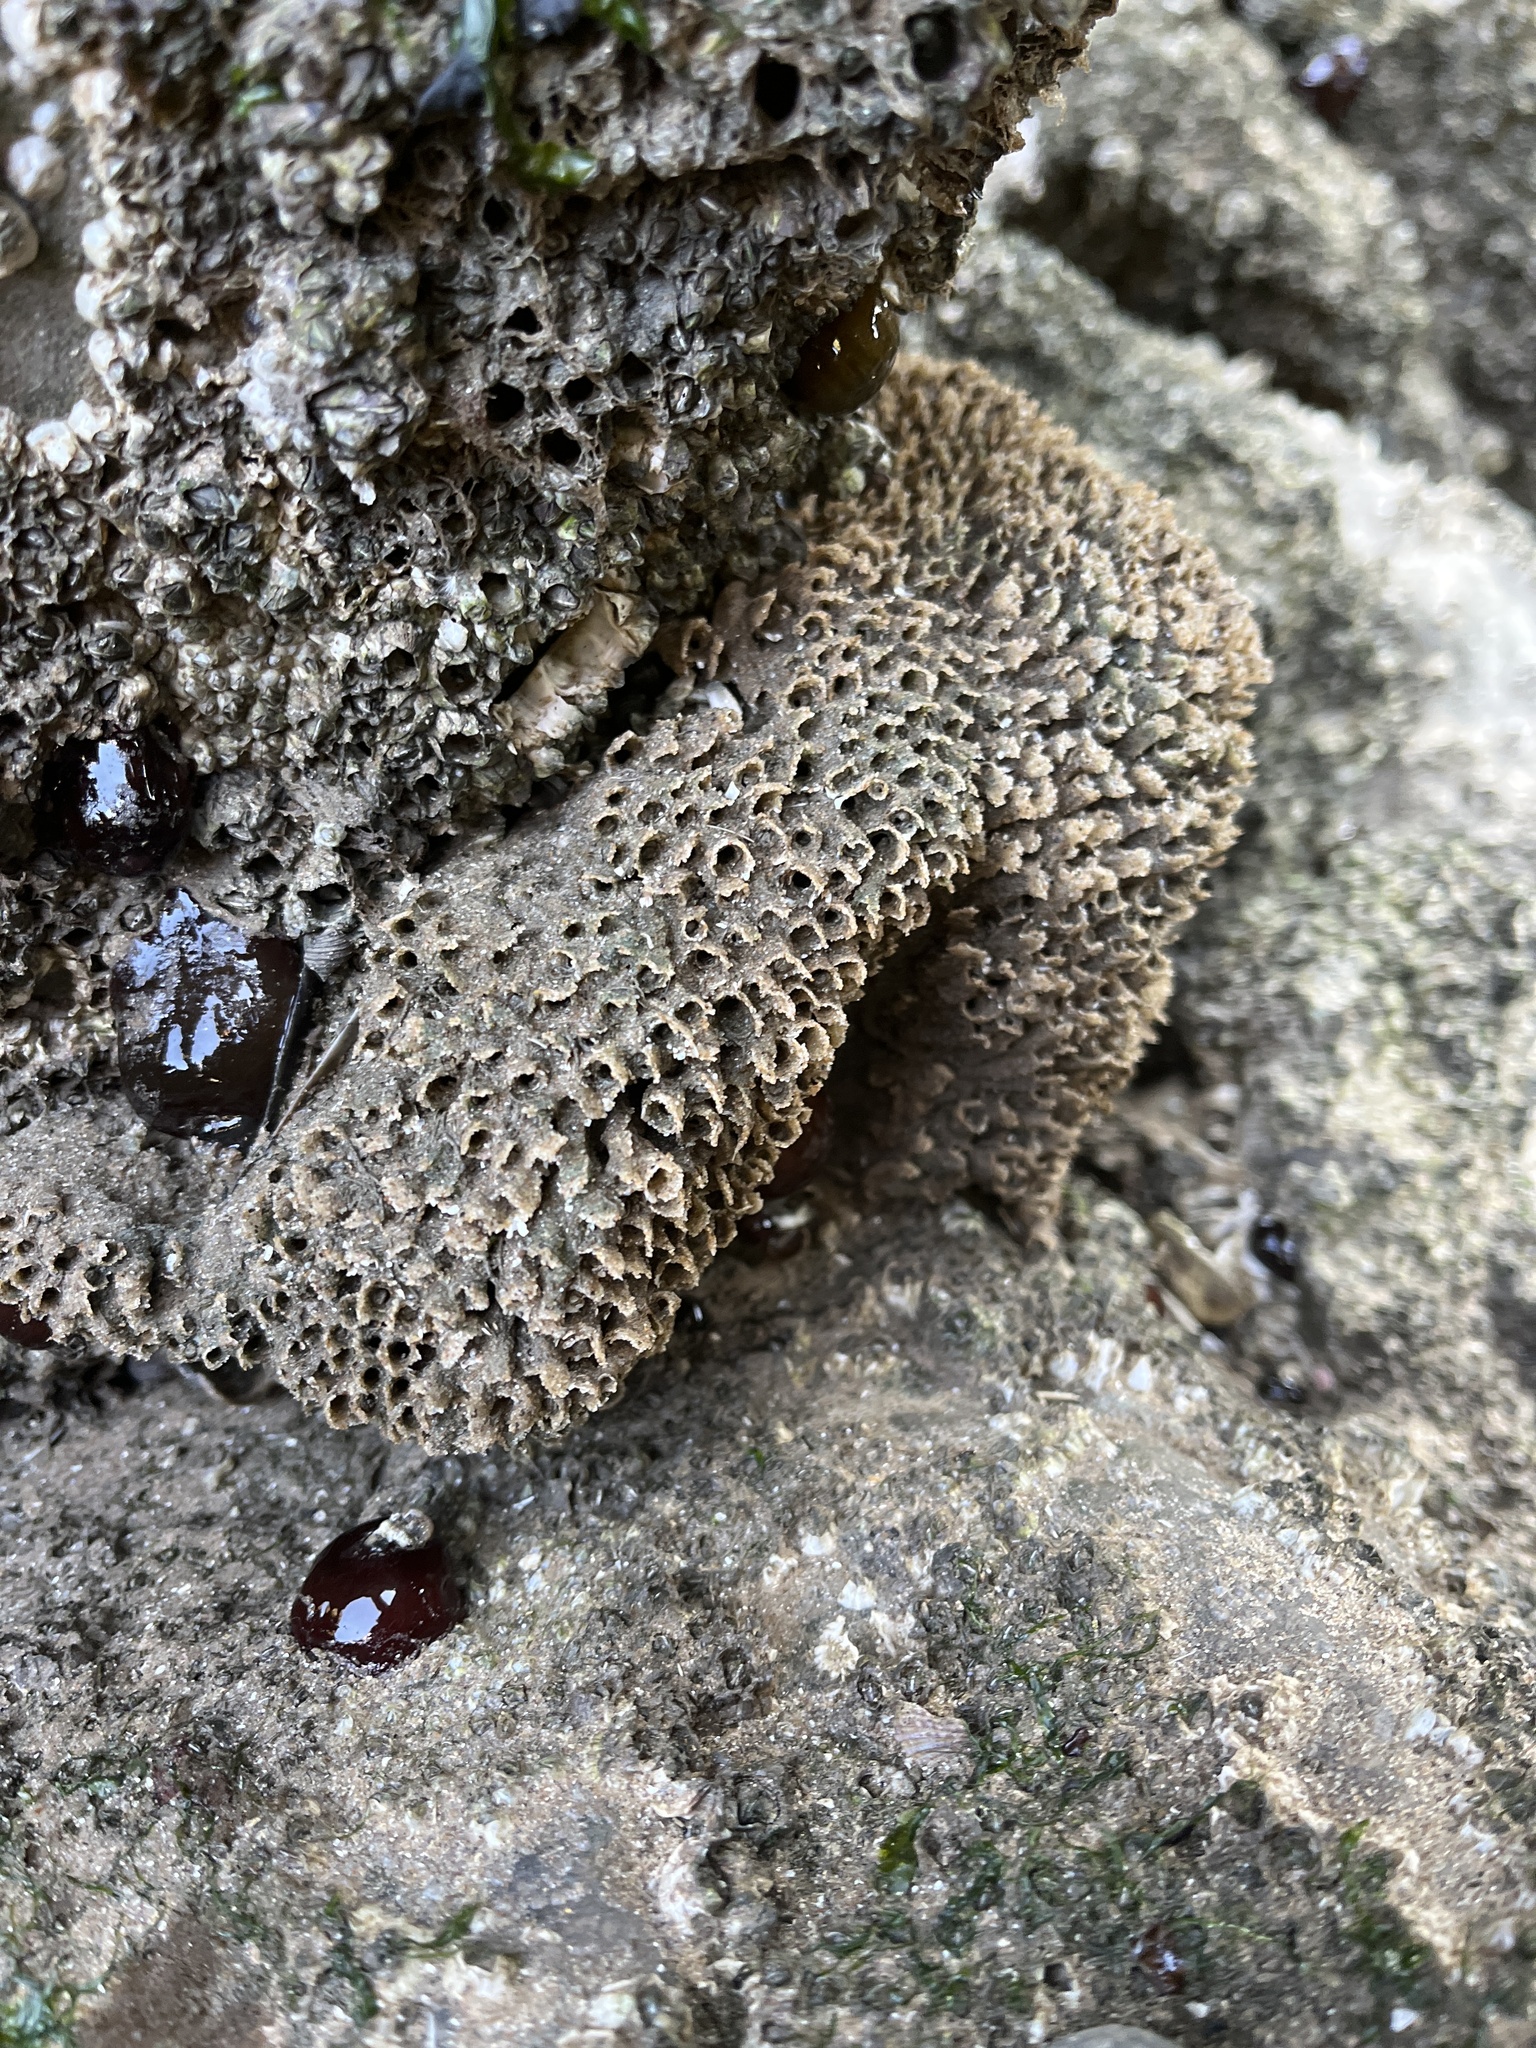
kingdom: Animalia
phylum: Annelida
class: Polychaeta
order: Sabellida
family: Sabellariidae
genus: Sabellaria
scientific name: Sabellaria alveolata
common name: Honeycomb worm
